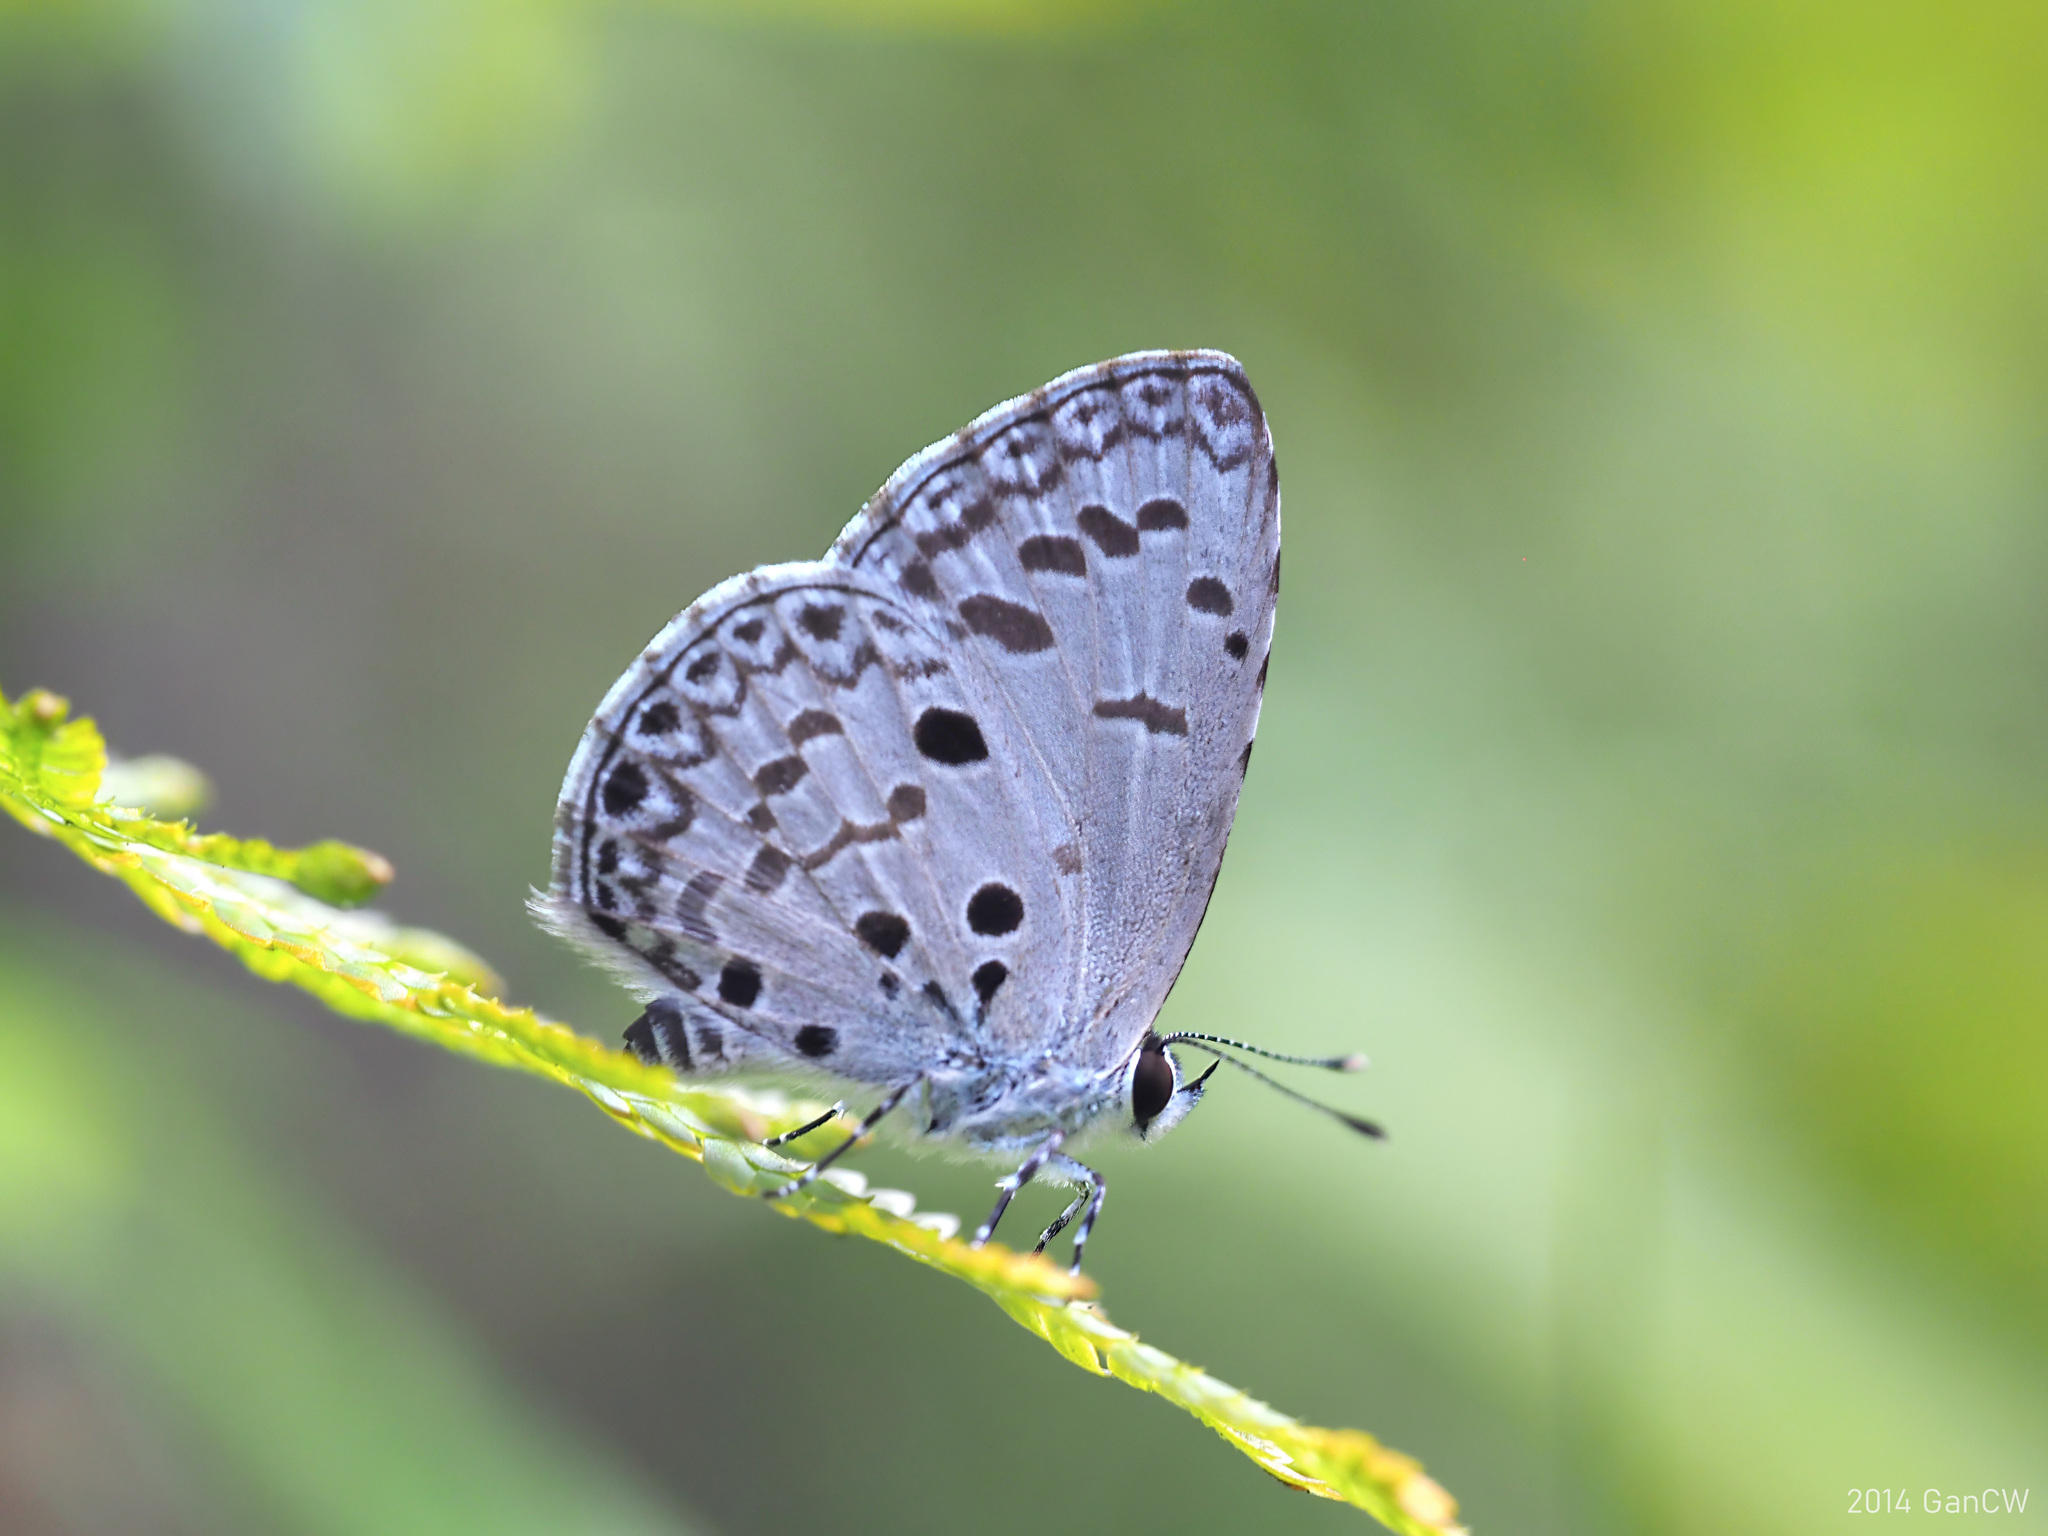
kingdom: Animalia
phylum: Arthropoda
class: Insecta
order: Lepidoptera
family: Lycaenidae
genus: Acytolepis
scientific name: Acytolepis puspa
